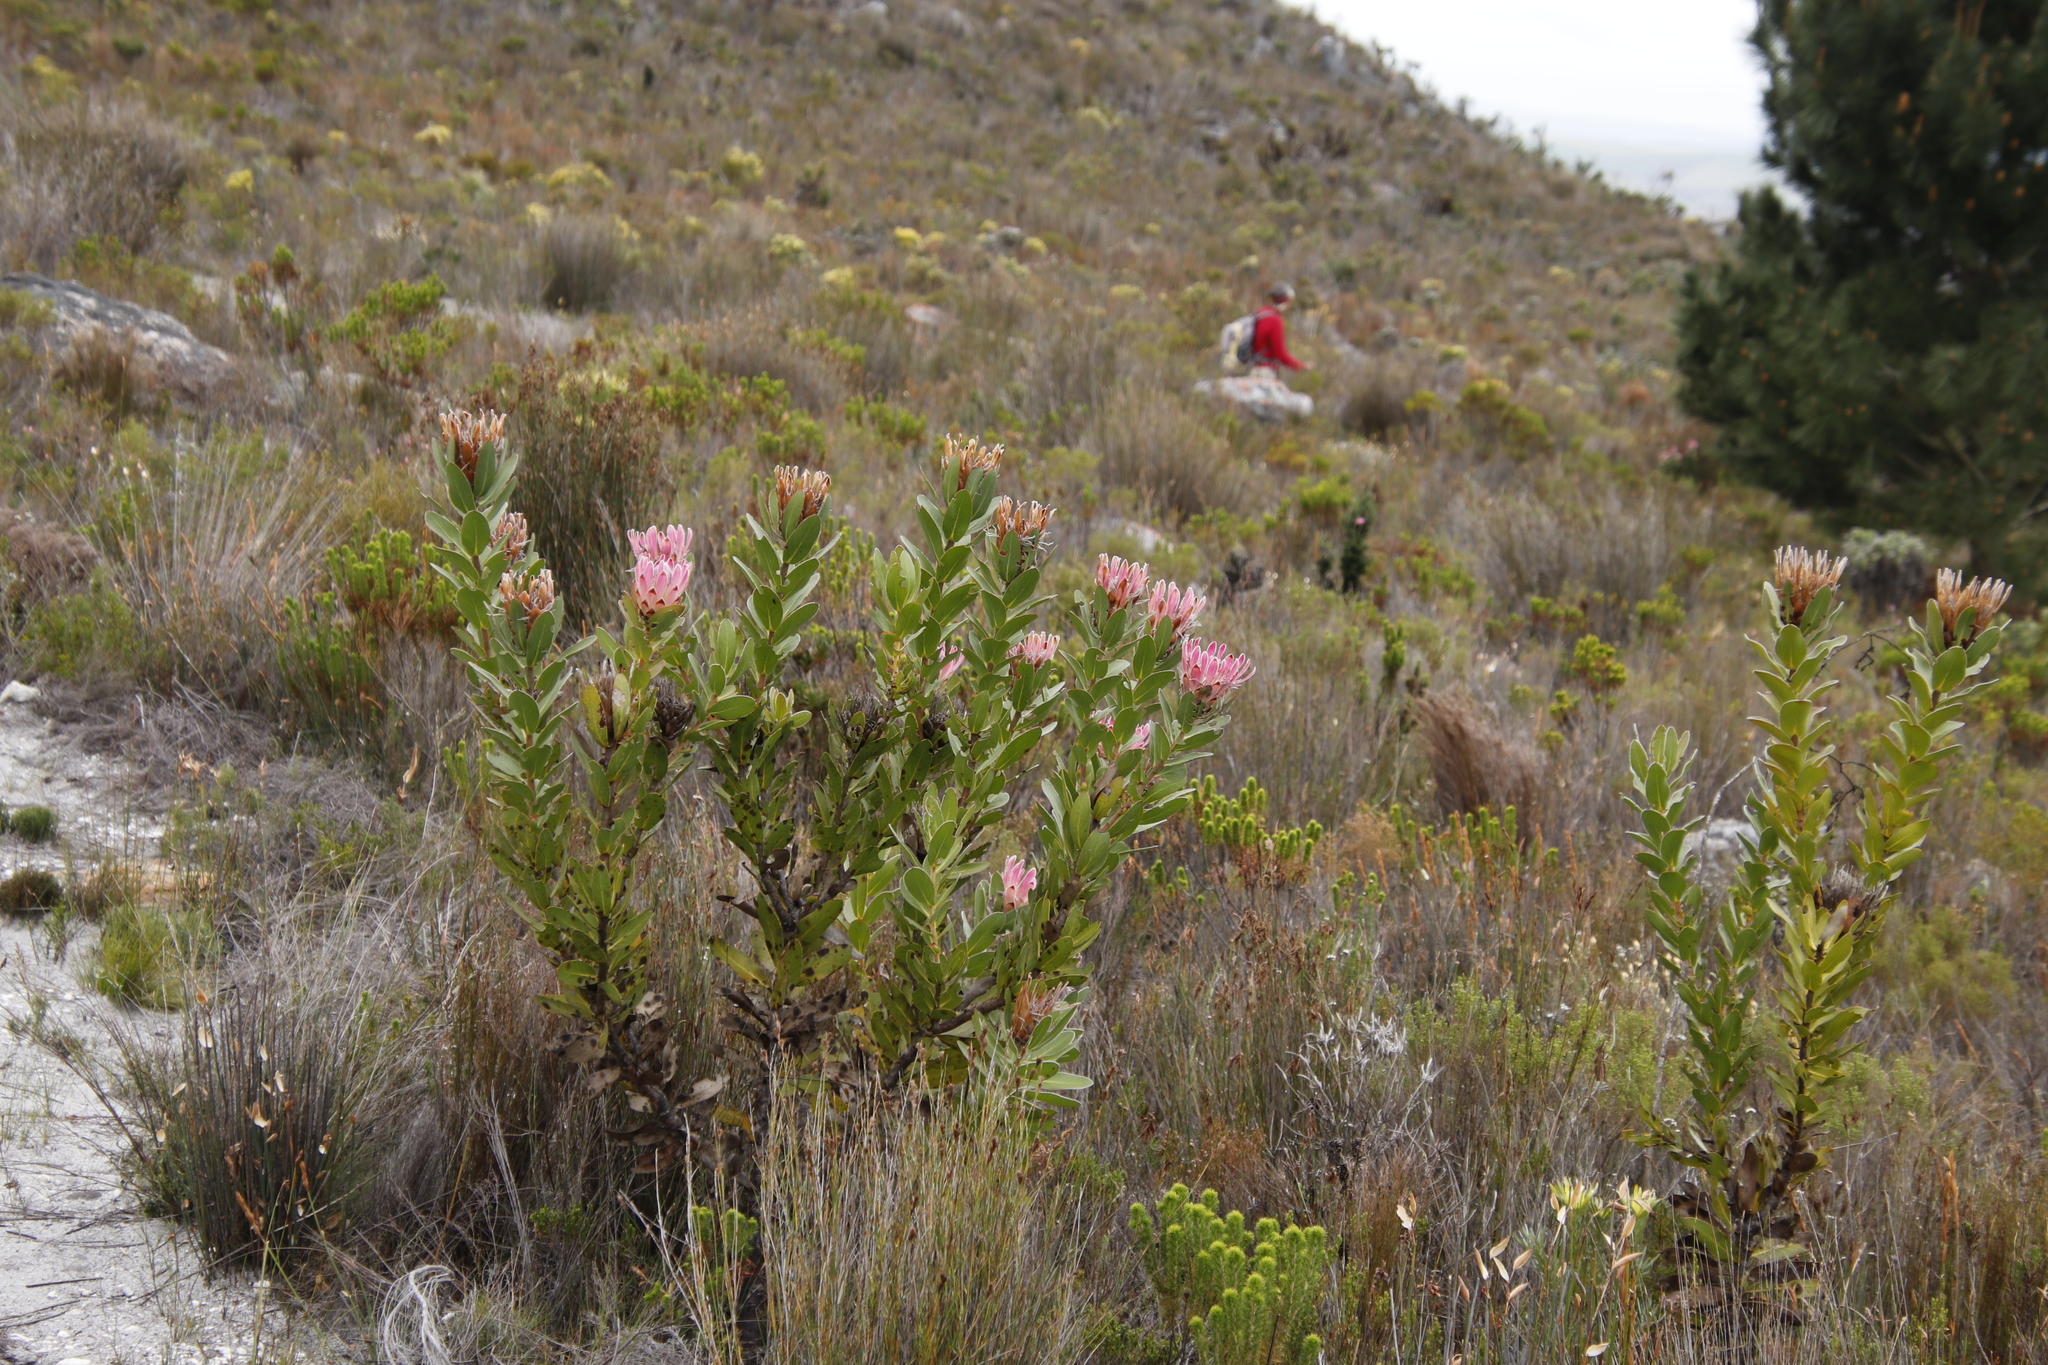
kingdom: Plantae
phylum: Tracheophyta
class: Magnoliopsida
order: Proteales
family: Proteaceae
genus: Protea
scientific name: Protea compacta
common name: Bot river protea
